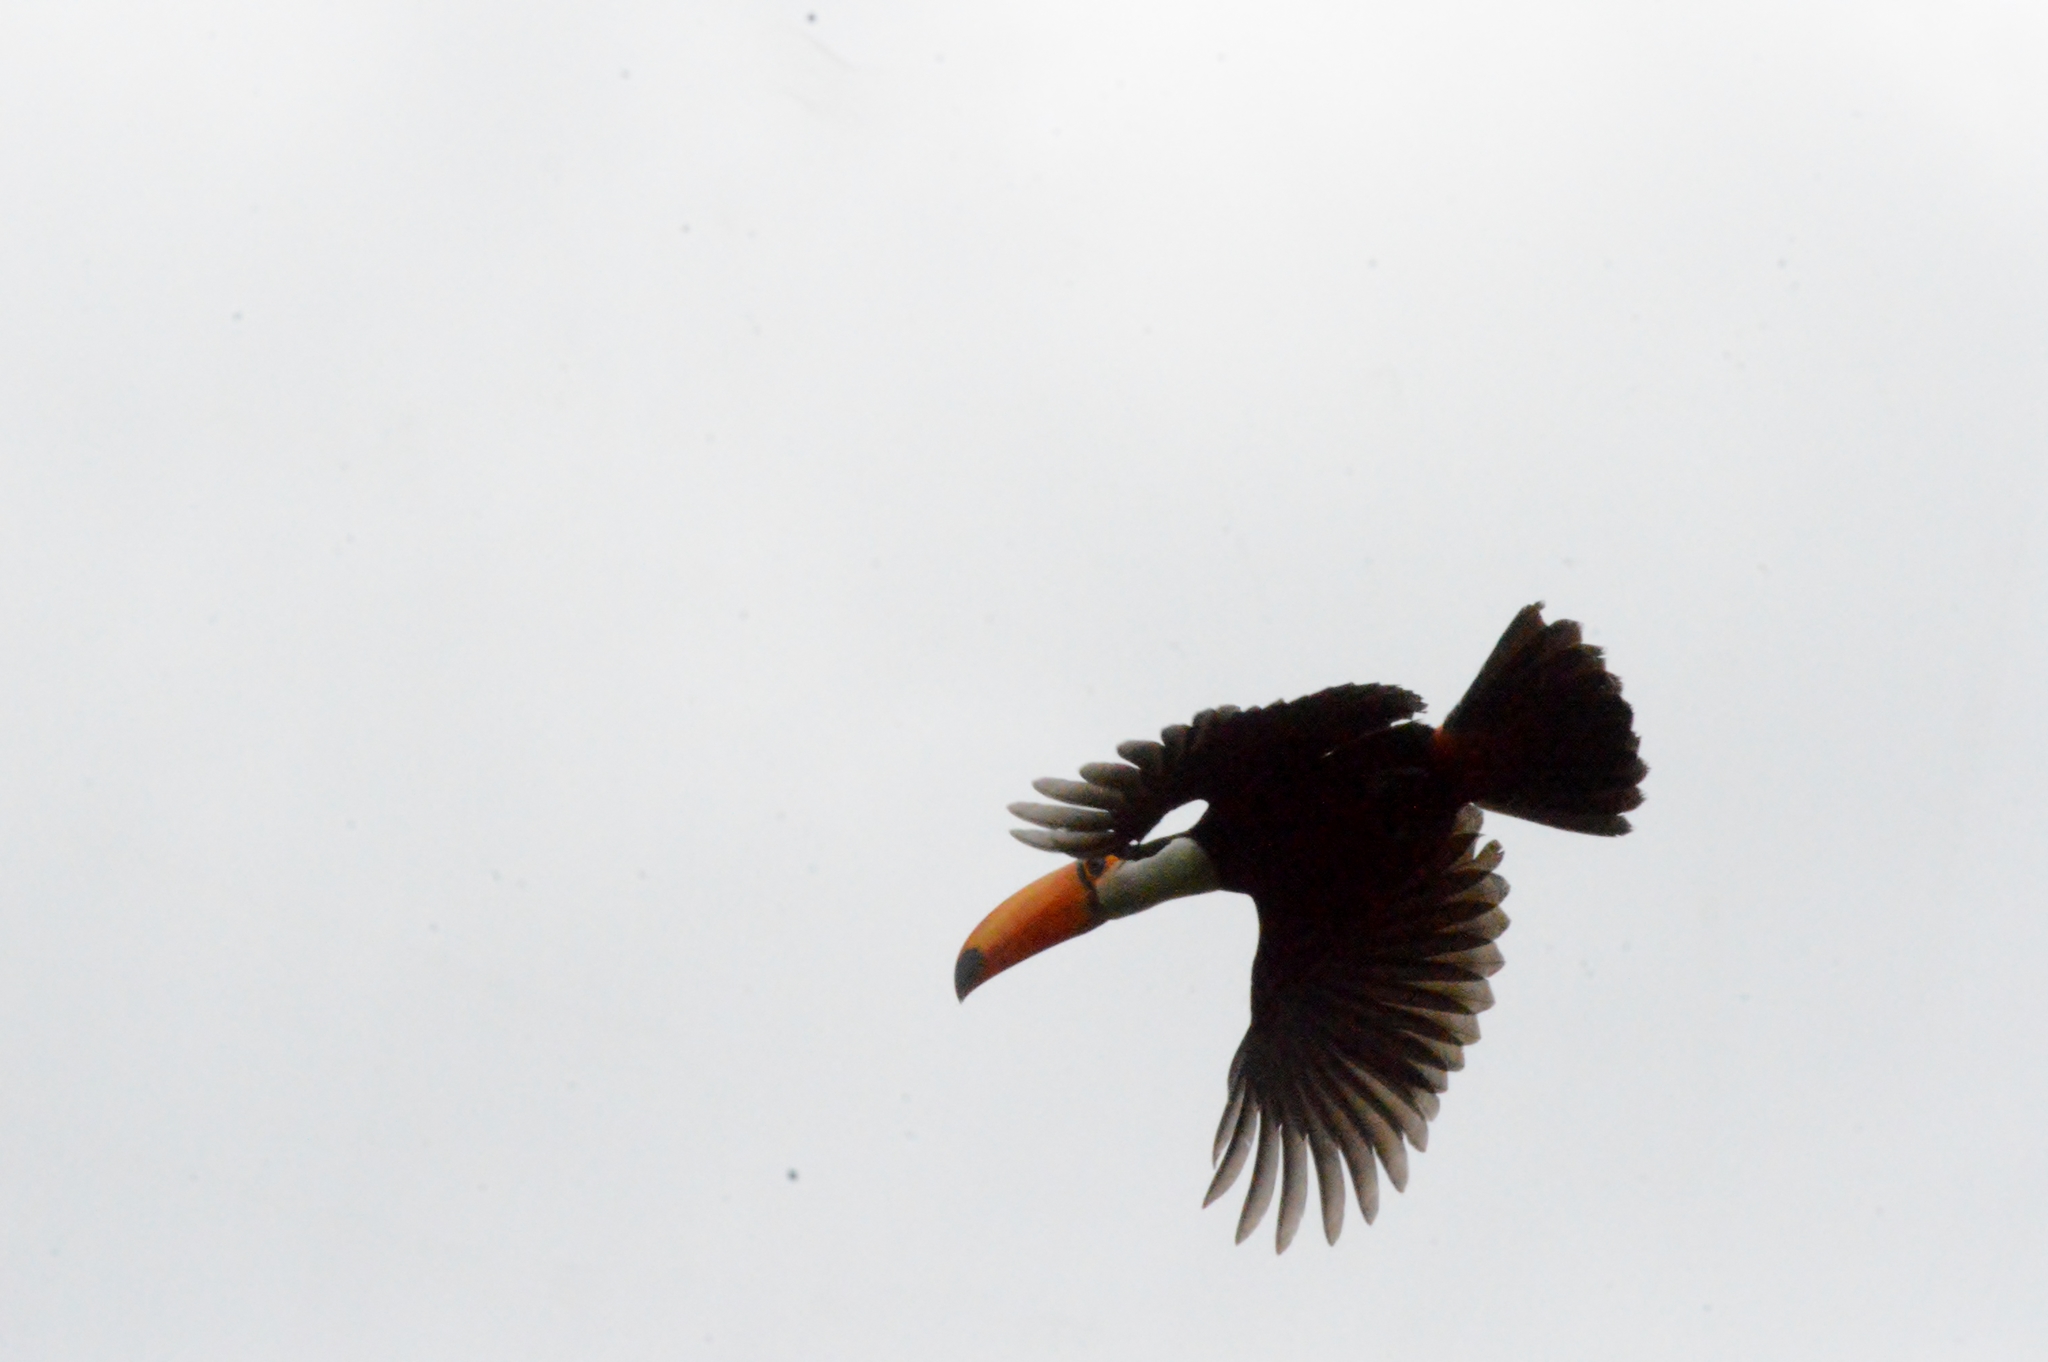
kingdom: Animalia
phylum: Chordata
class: Aves
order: Piciformes
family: Ramphastidae
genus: Ramphastos
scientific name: Ramphastos toco
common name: Toco toucan
